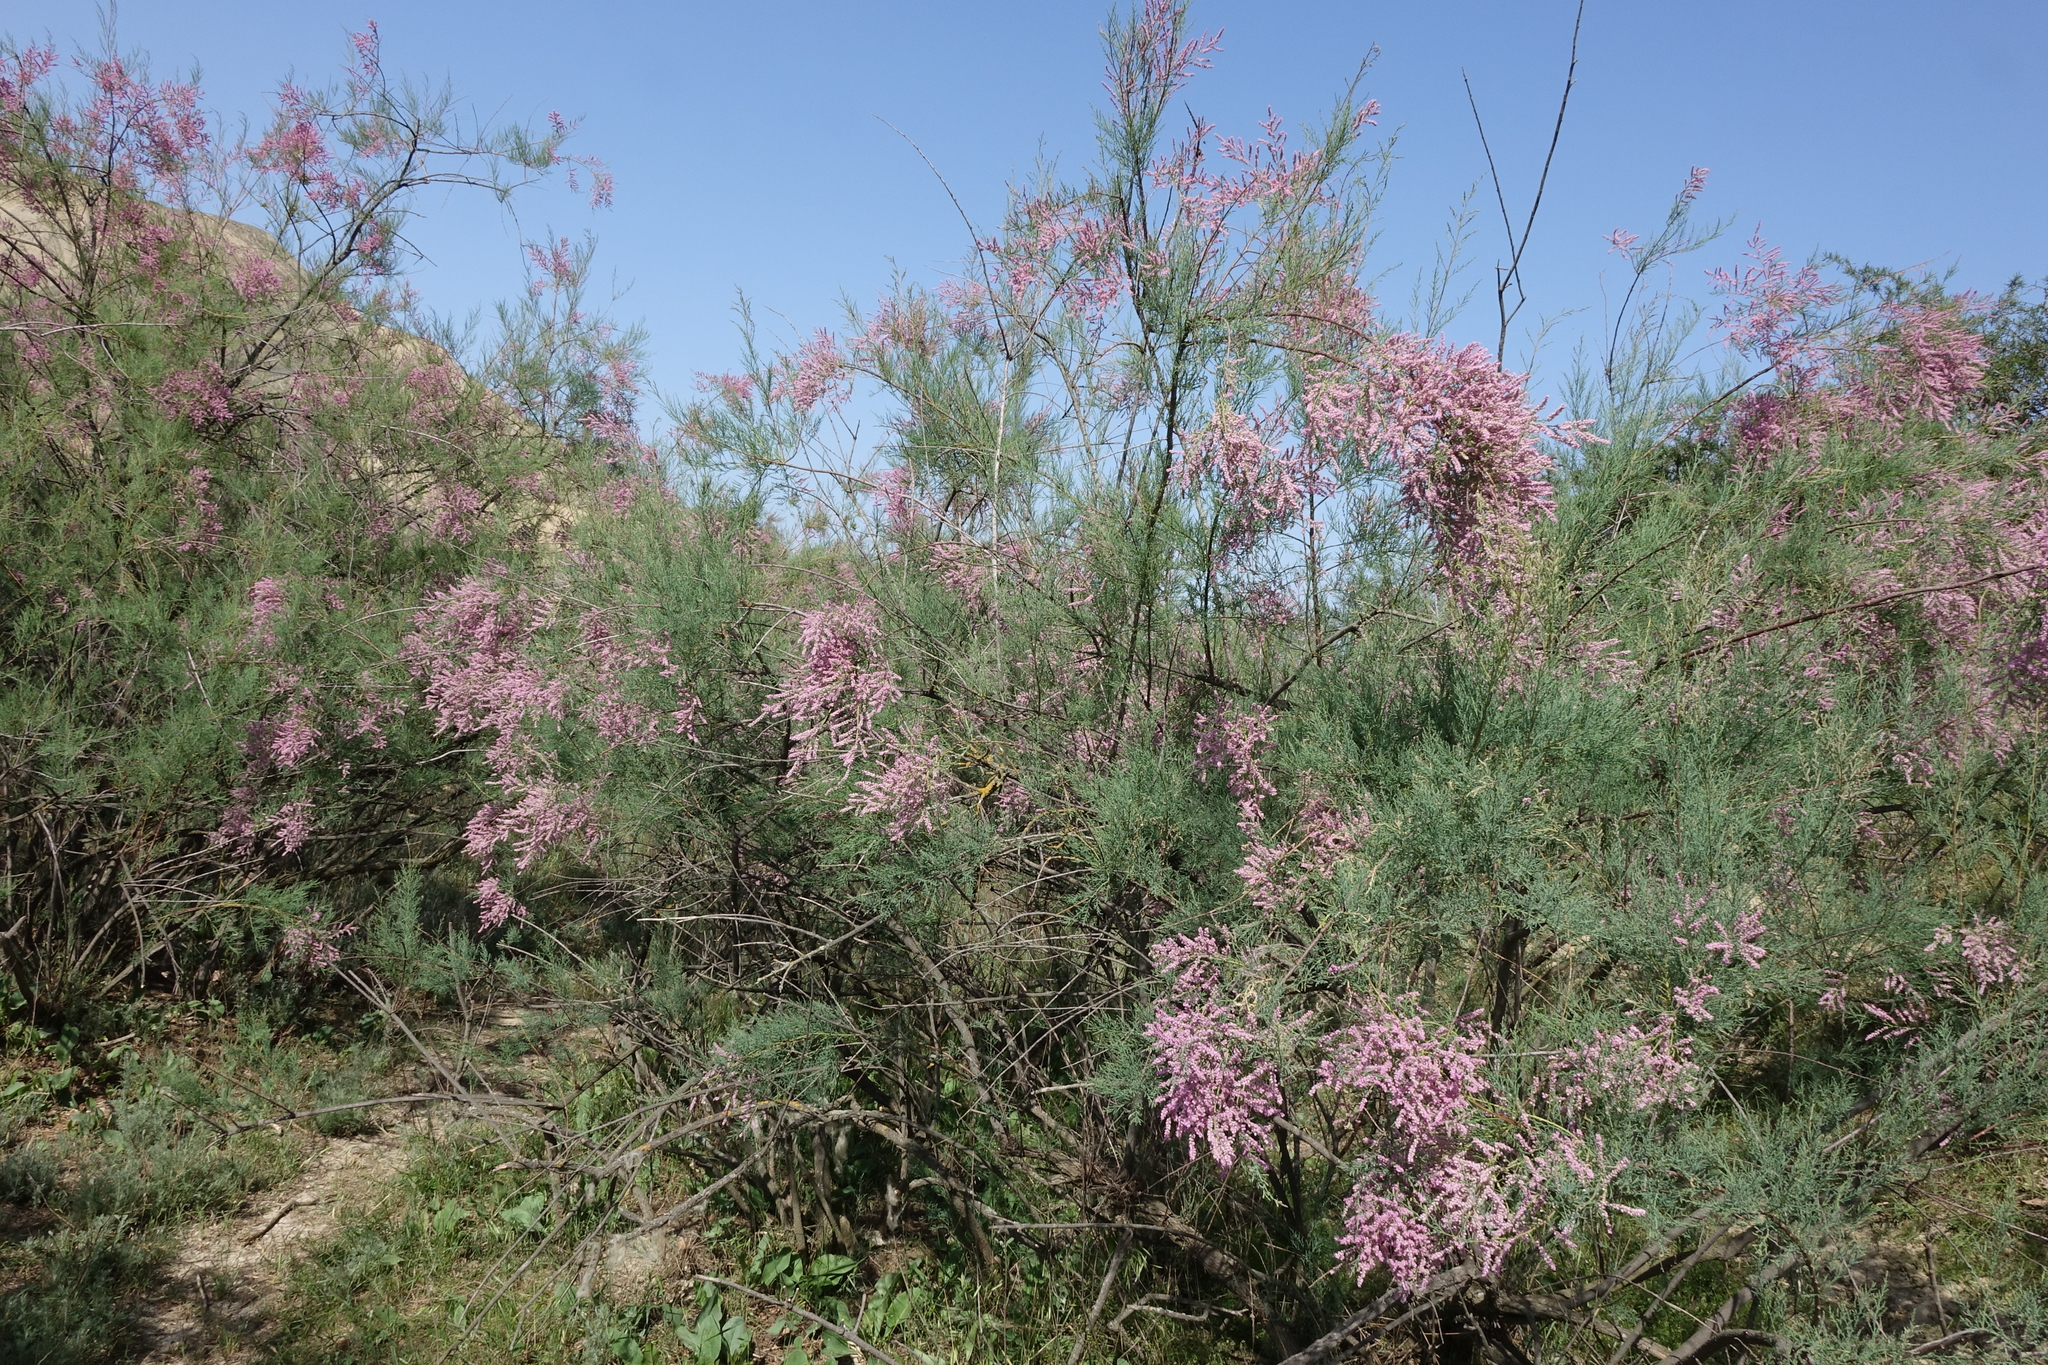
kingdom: Plantae
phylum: Tracheophyta
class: Magnoliopsida
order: Caryophyllales
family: Tamaricaceae
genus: Tamarix
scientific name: Tamarix ramosissima
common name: Pink tamarisk
